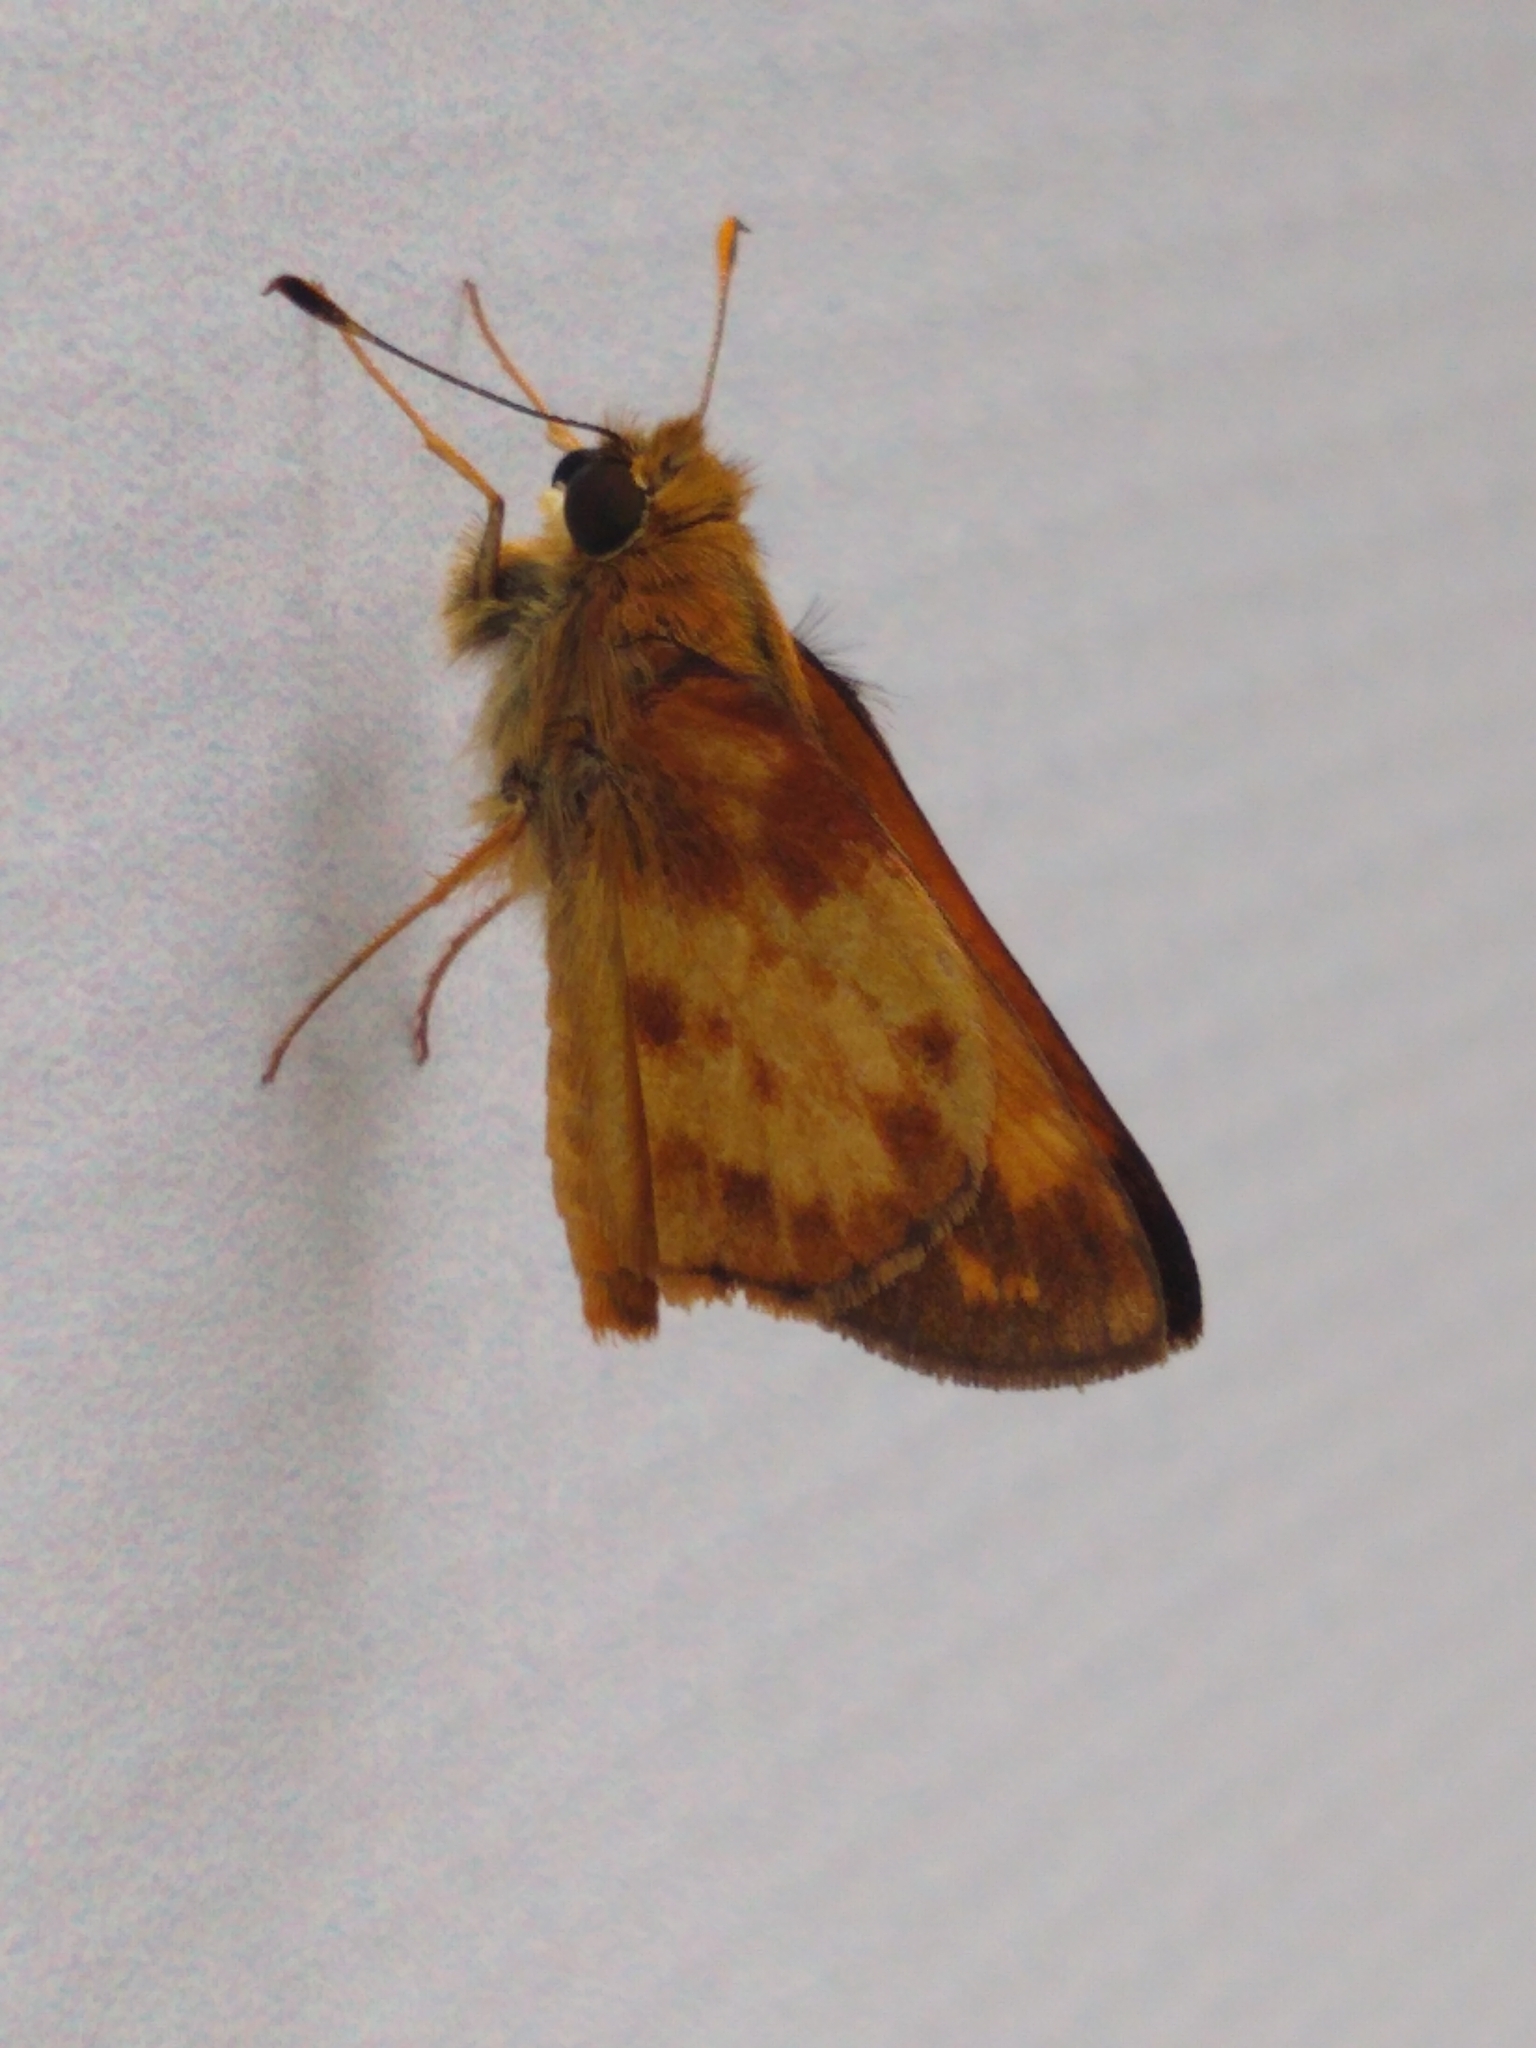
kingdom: Animalia
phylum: Arthropoda
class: Insecta
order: Lepidoptera
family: Hesperiidae
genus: Lon
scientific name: Lon zabulon
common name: Zabulon skipper
